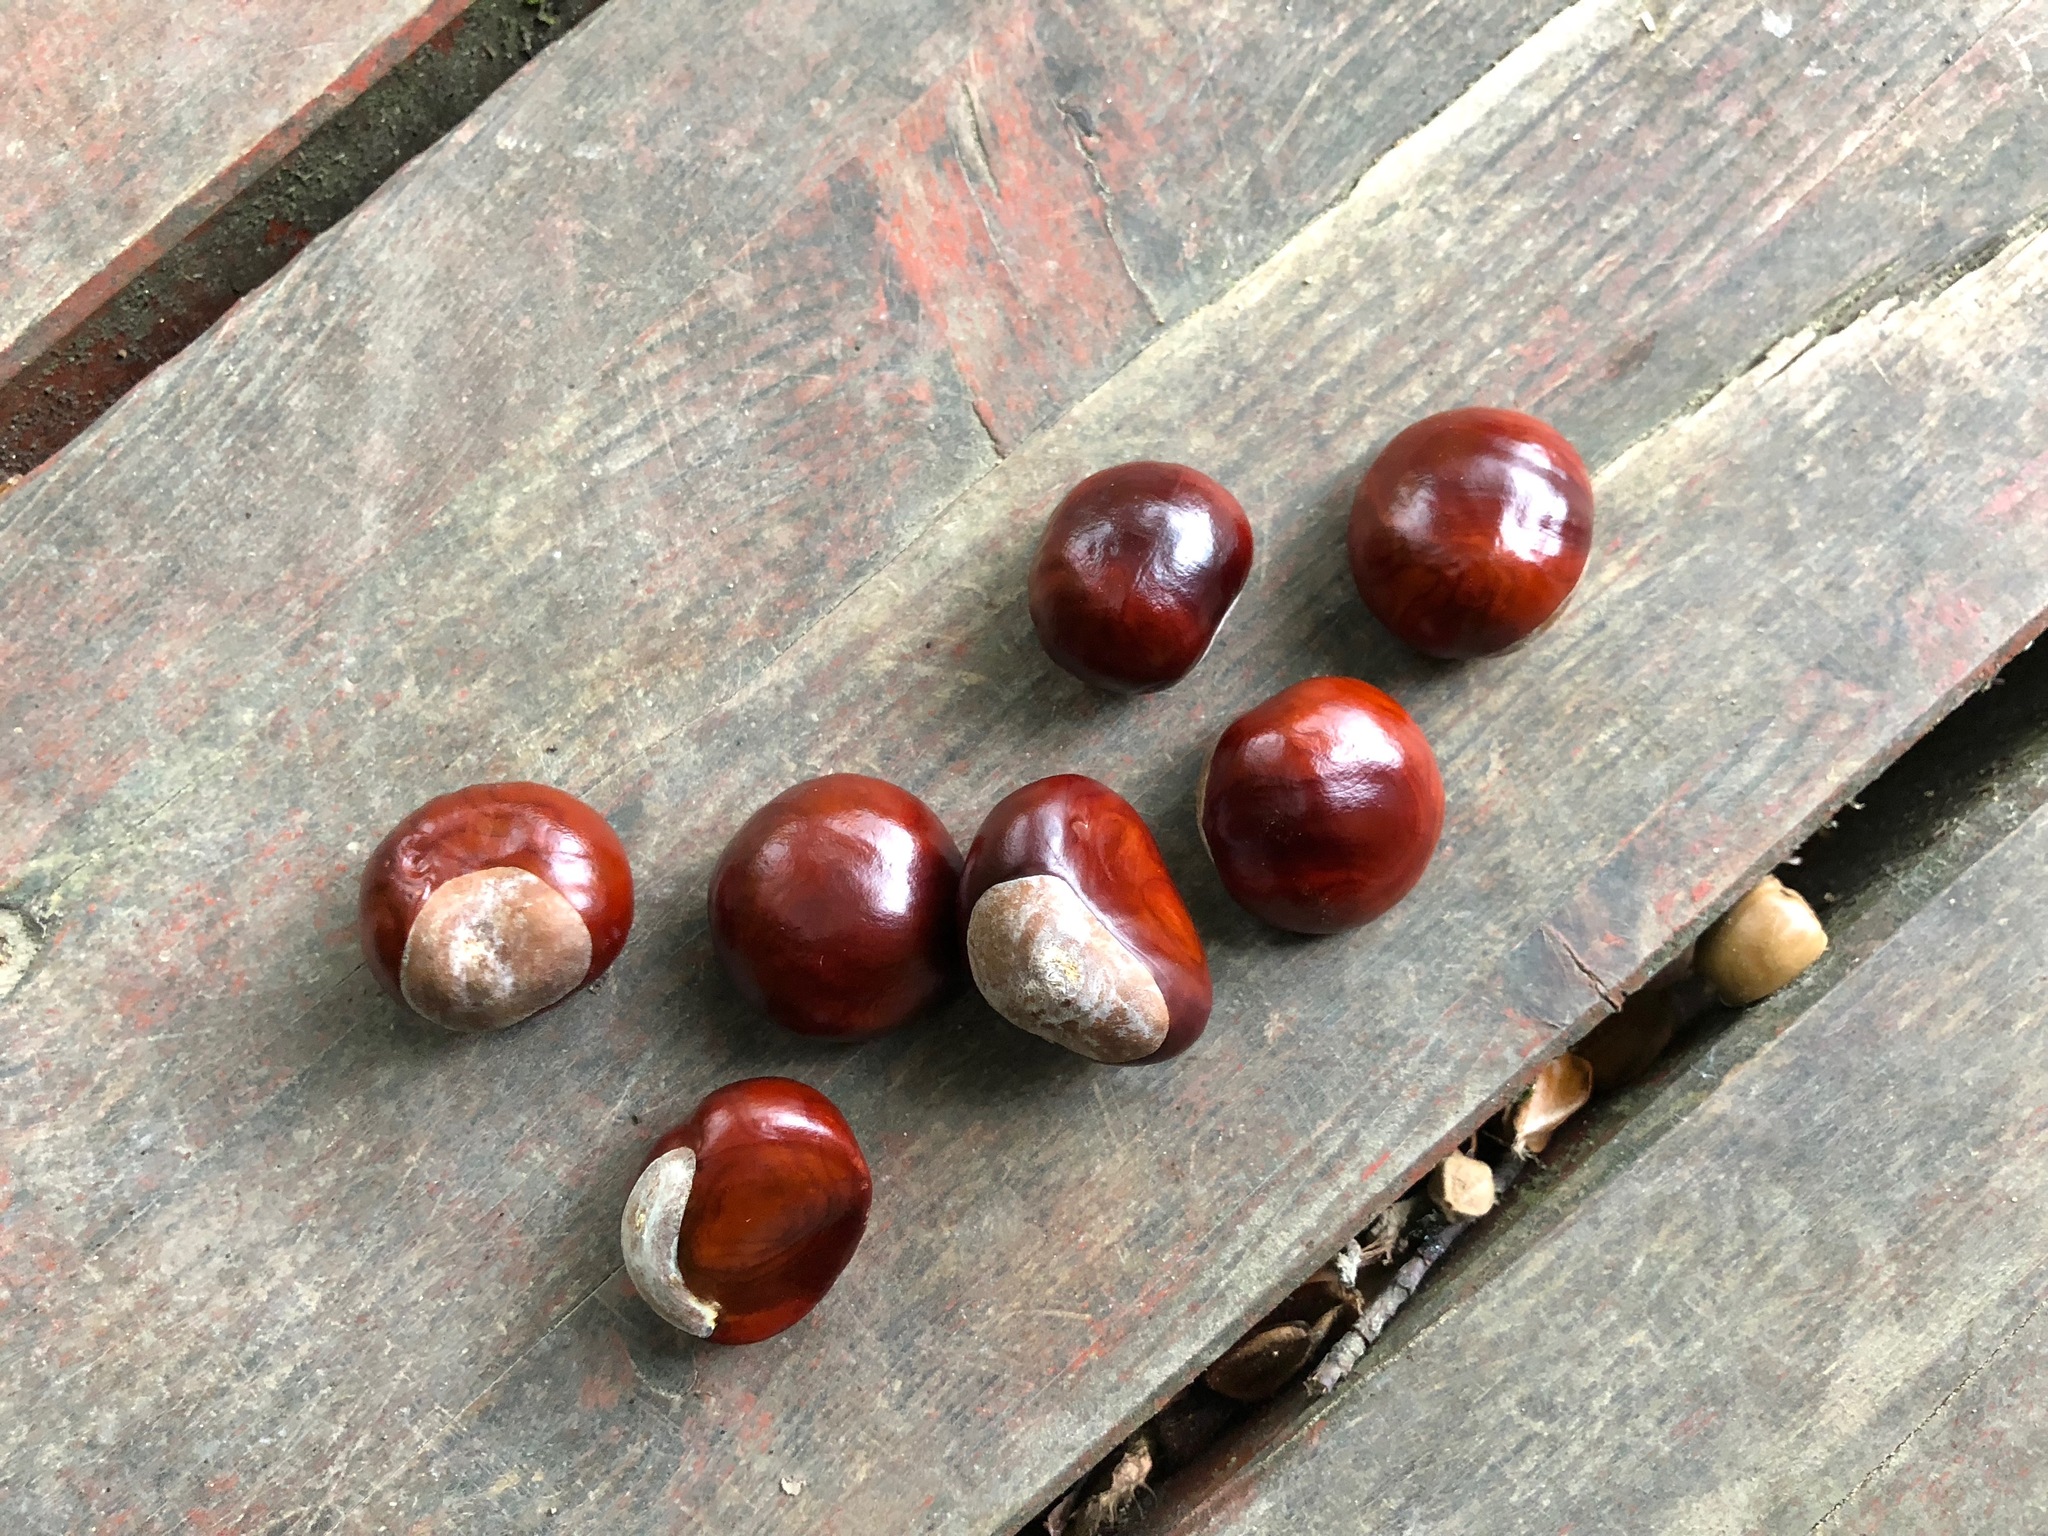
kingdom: Plantae
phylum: Tracheophyta
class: Magnoliopsida
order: Sapindales
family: Sapindaceae
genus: Aesculus
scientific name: Aesculus hippocastanum
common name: Horse-chestnut
